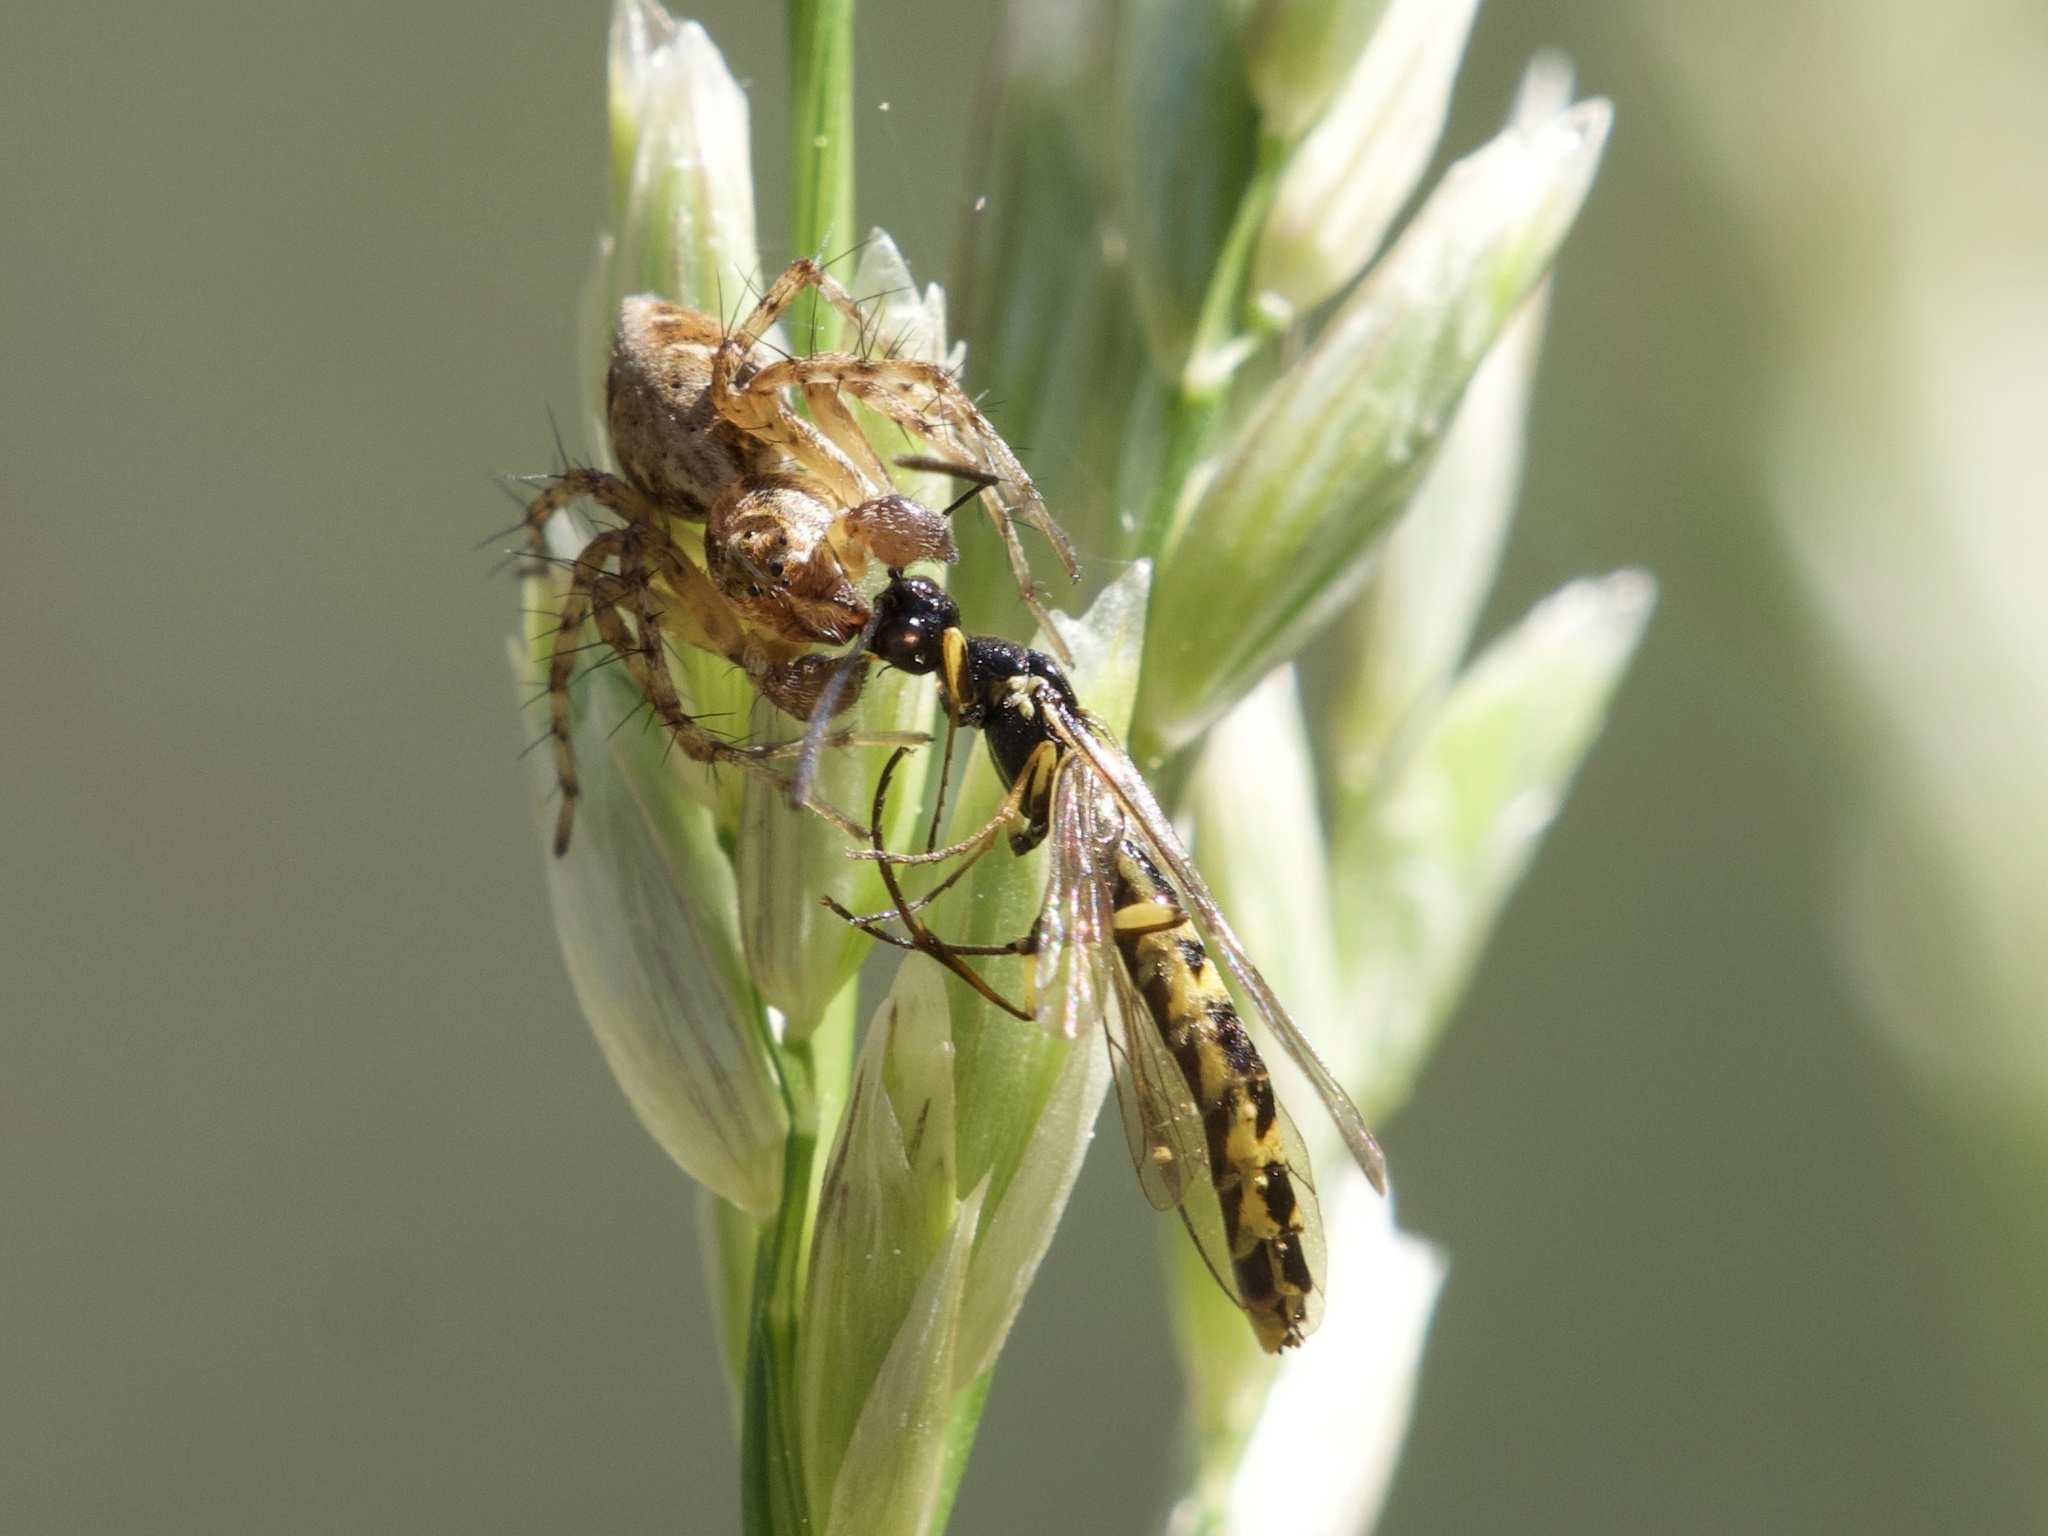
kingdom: Animalia
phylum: Arthropoda
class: Arachnida
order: Araneae
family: Oxyopidae
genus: Oxyopes
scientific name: Oxyopes scalaris
